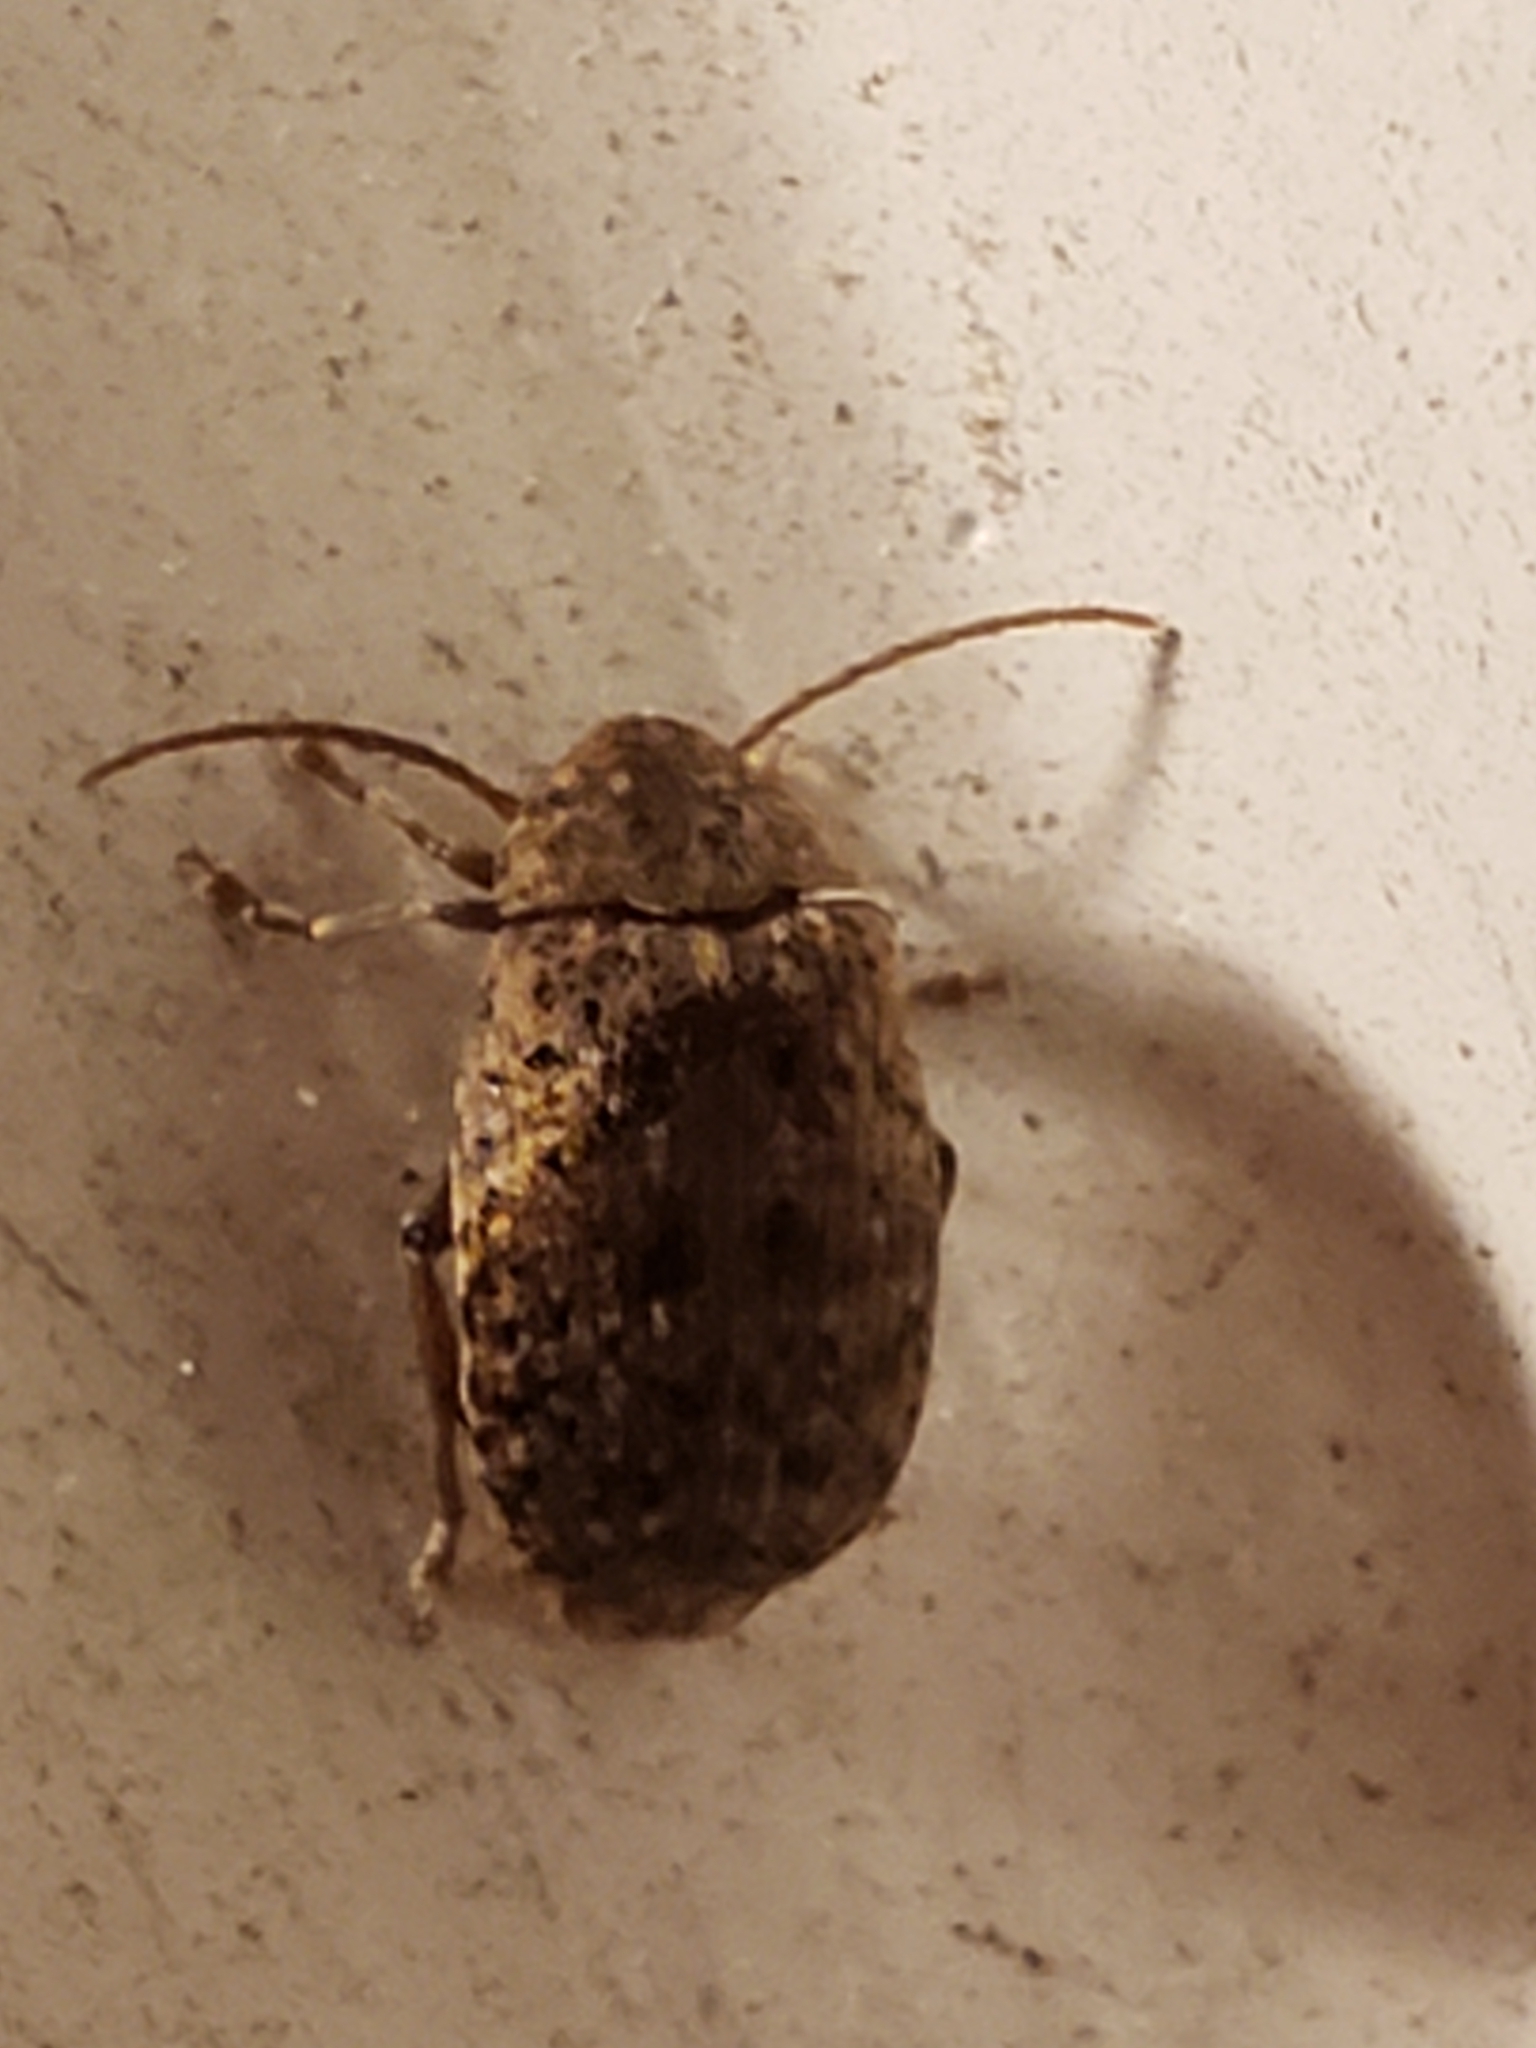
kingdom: Animalia
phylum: Arthropoda
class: Insecta
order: Coleoptera
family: Chrysomelidae
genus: Amblycerus
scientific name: Amblycerus robiniae
